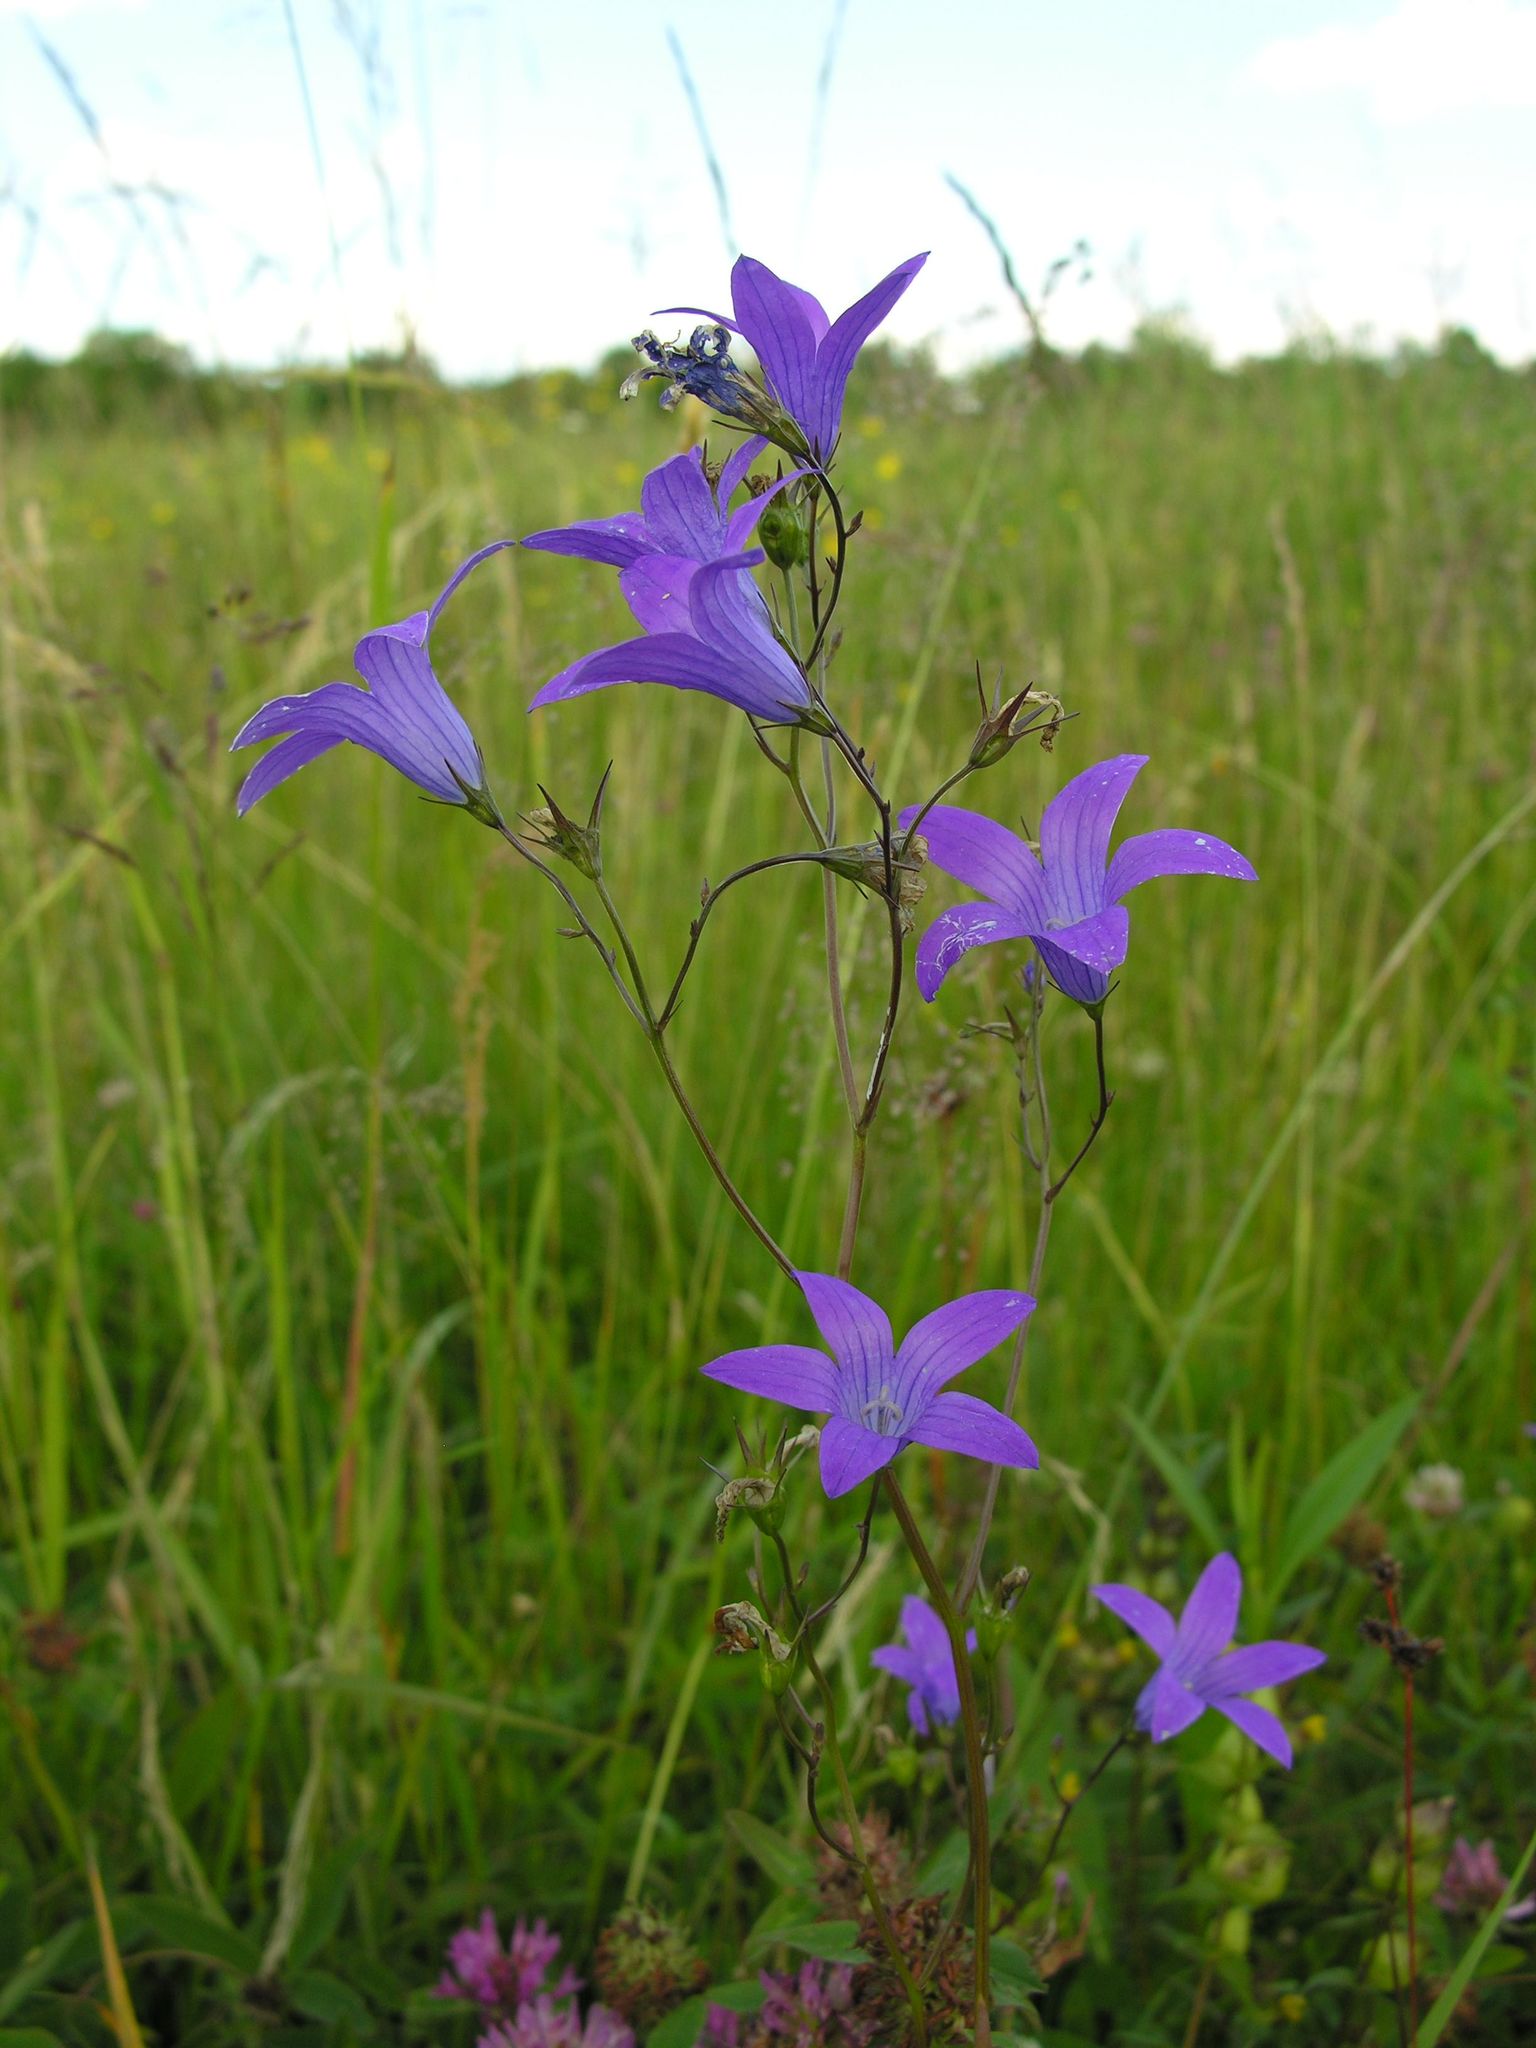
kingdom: Plantae
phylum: Tracheophyta
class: Magnoliopsida
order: Asterales
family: Campanulaceae
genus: Campanula
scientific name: Campanula patula
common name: Spreading bellflower
